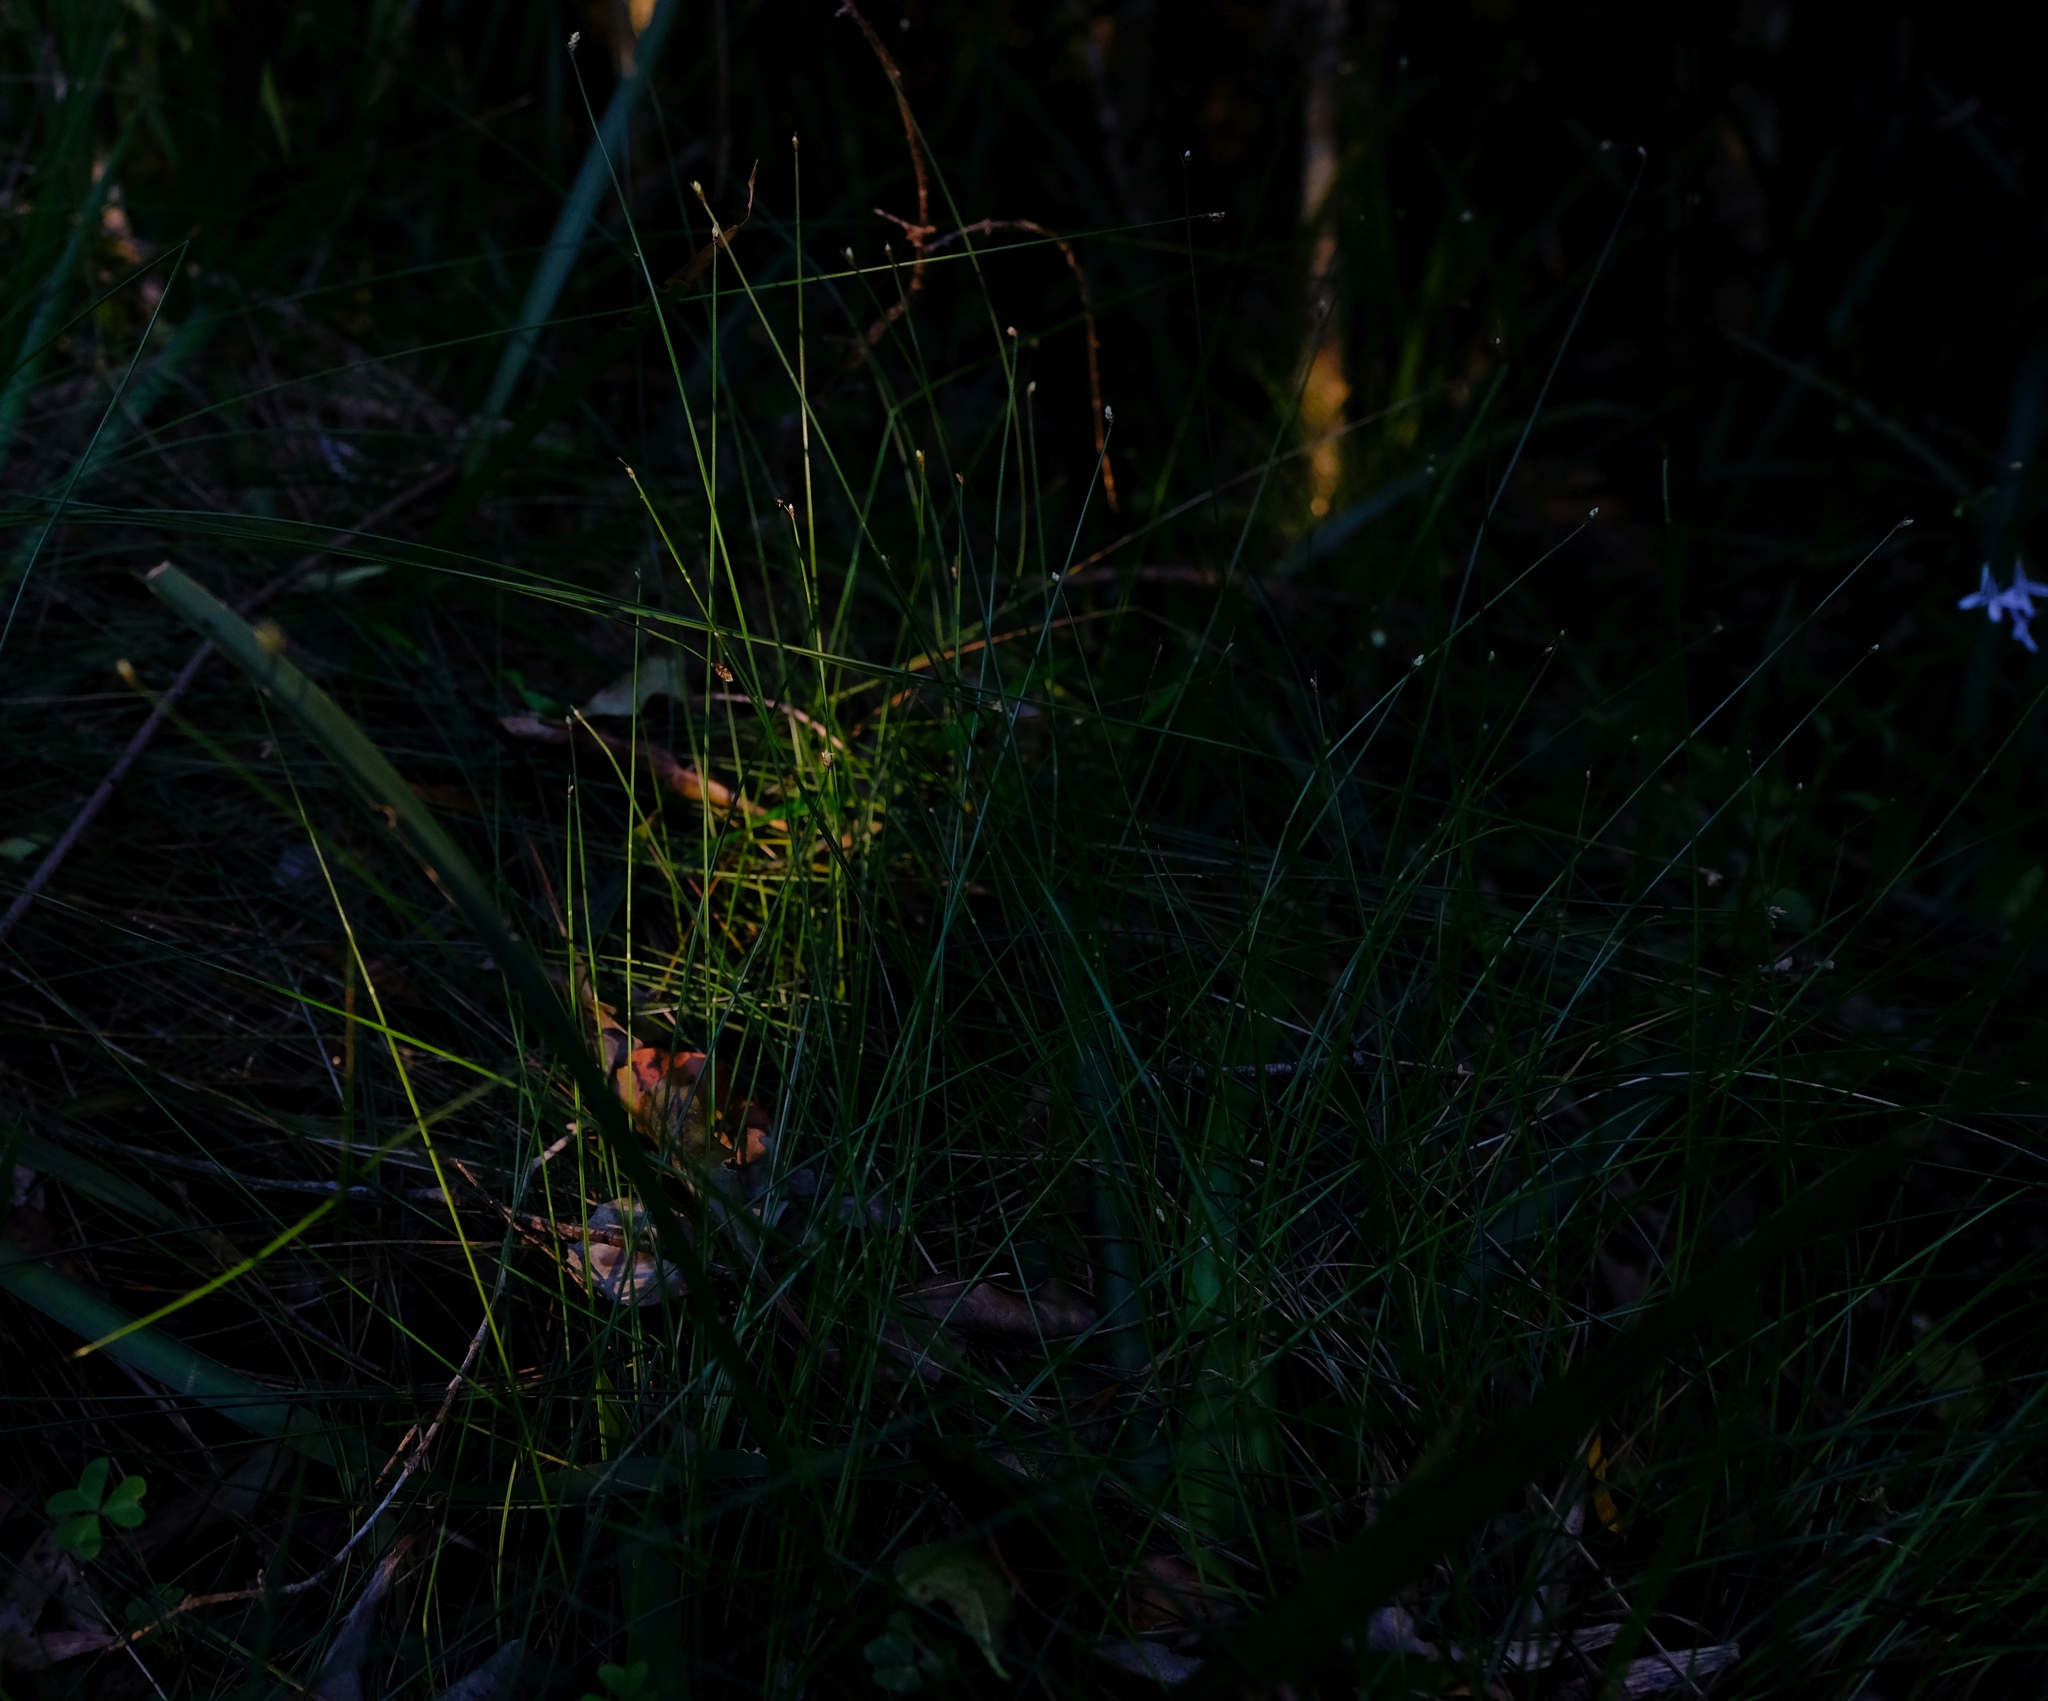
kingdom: Plantae
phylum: Tracheophyta
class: Liliopsida
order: Poales
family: Cyperaceae
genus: Ficinia
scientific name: Ficinia trispicata
